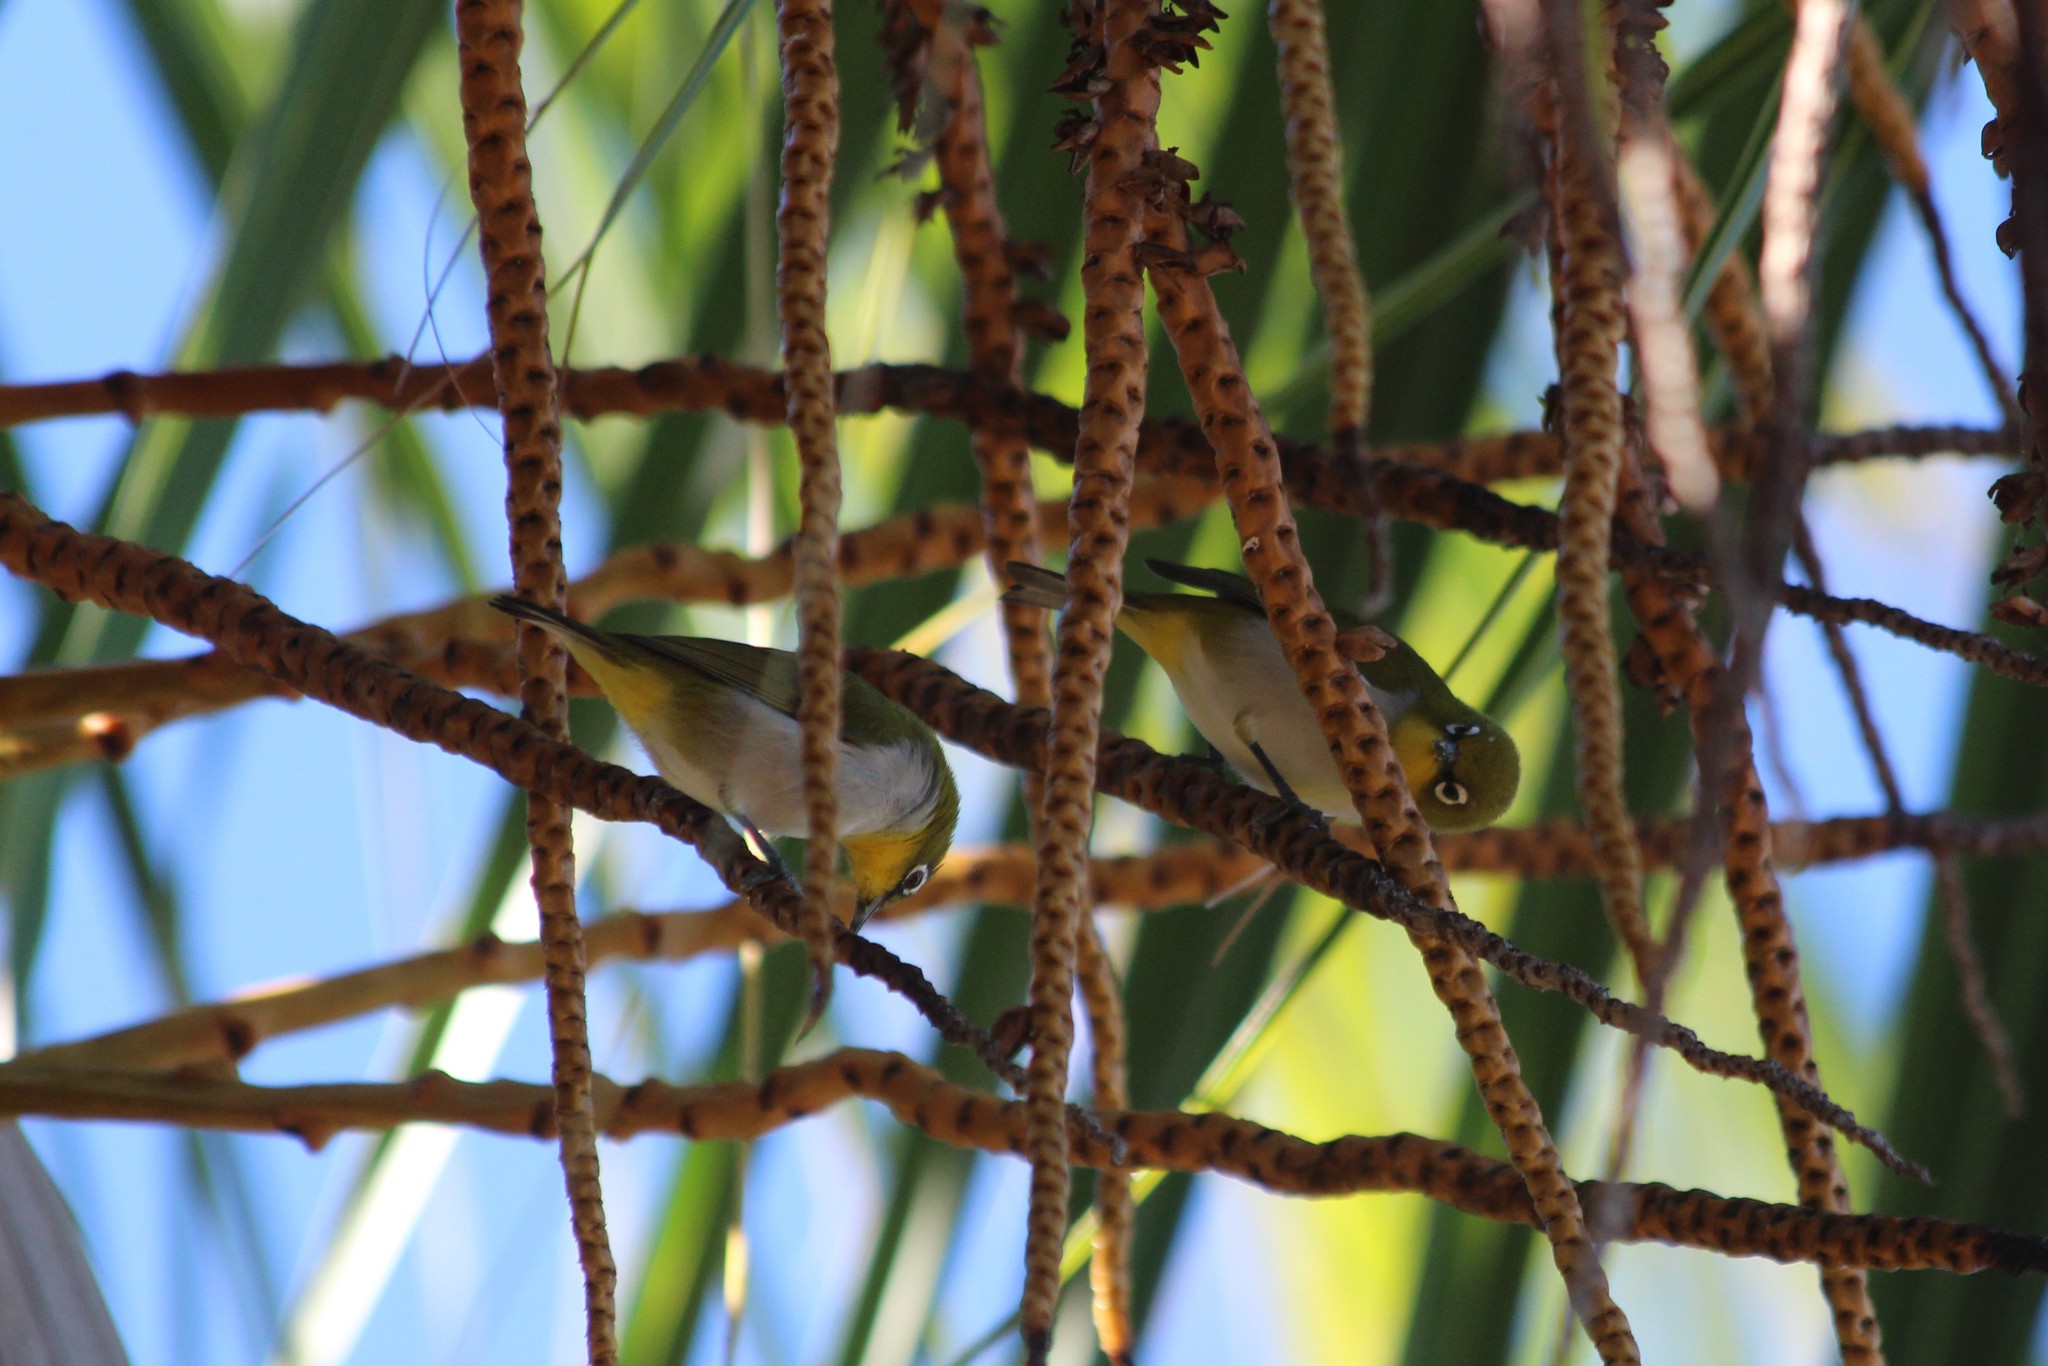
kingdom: Animalia
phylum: Chordata
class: Aves
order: Passeriformes
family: Zosteropidae
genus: Zosterops
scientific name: Zosterops maderaspatanus
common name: Madagascar white-eye
